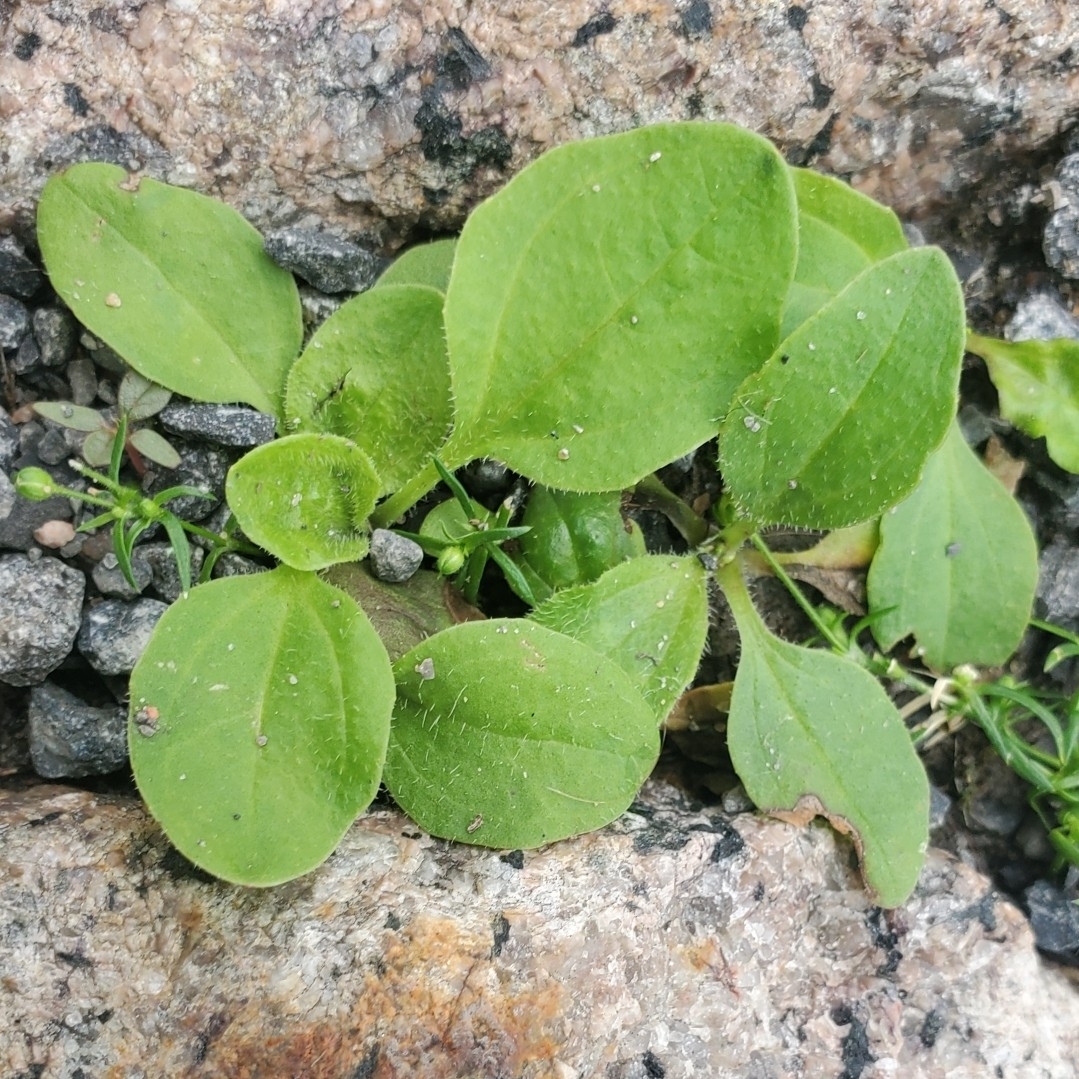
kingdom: Plantae
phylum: Tracheophyta
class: Magnoliopsida
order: Lamiales
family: Plantaginaceae
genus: Plantago
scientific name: Plantago major
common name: Common plantain
